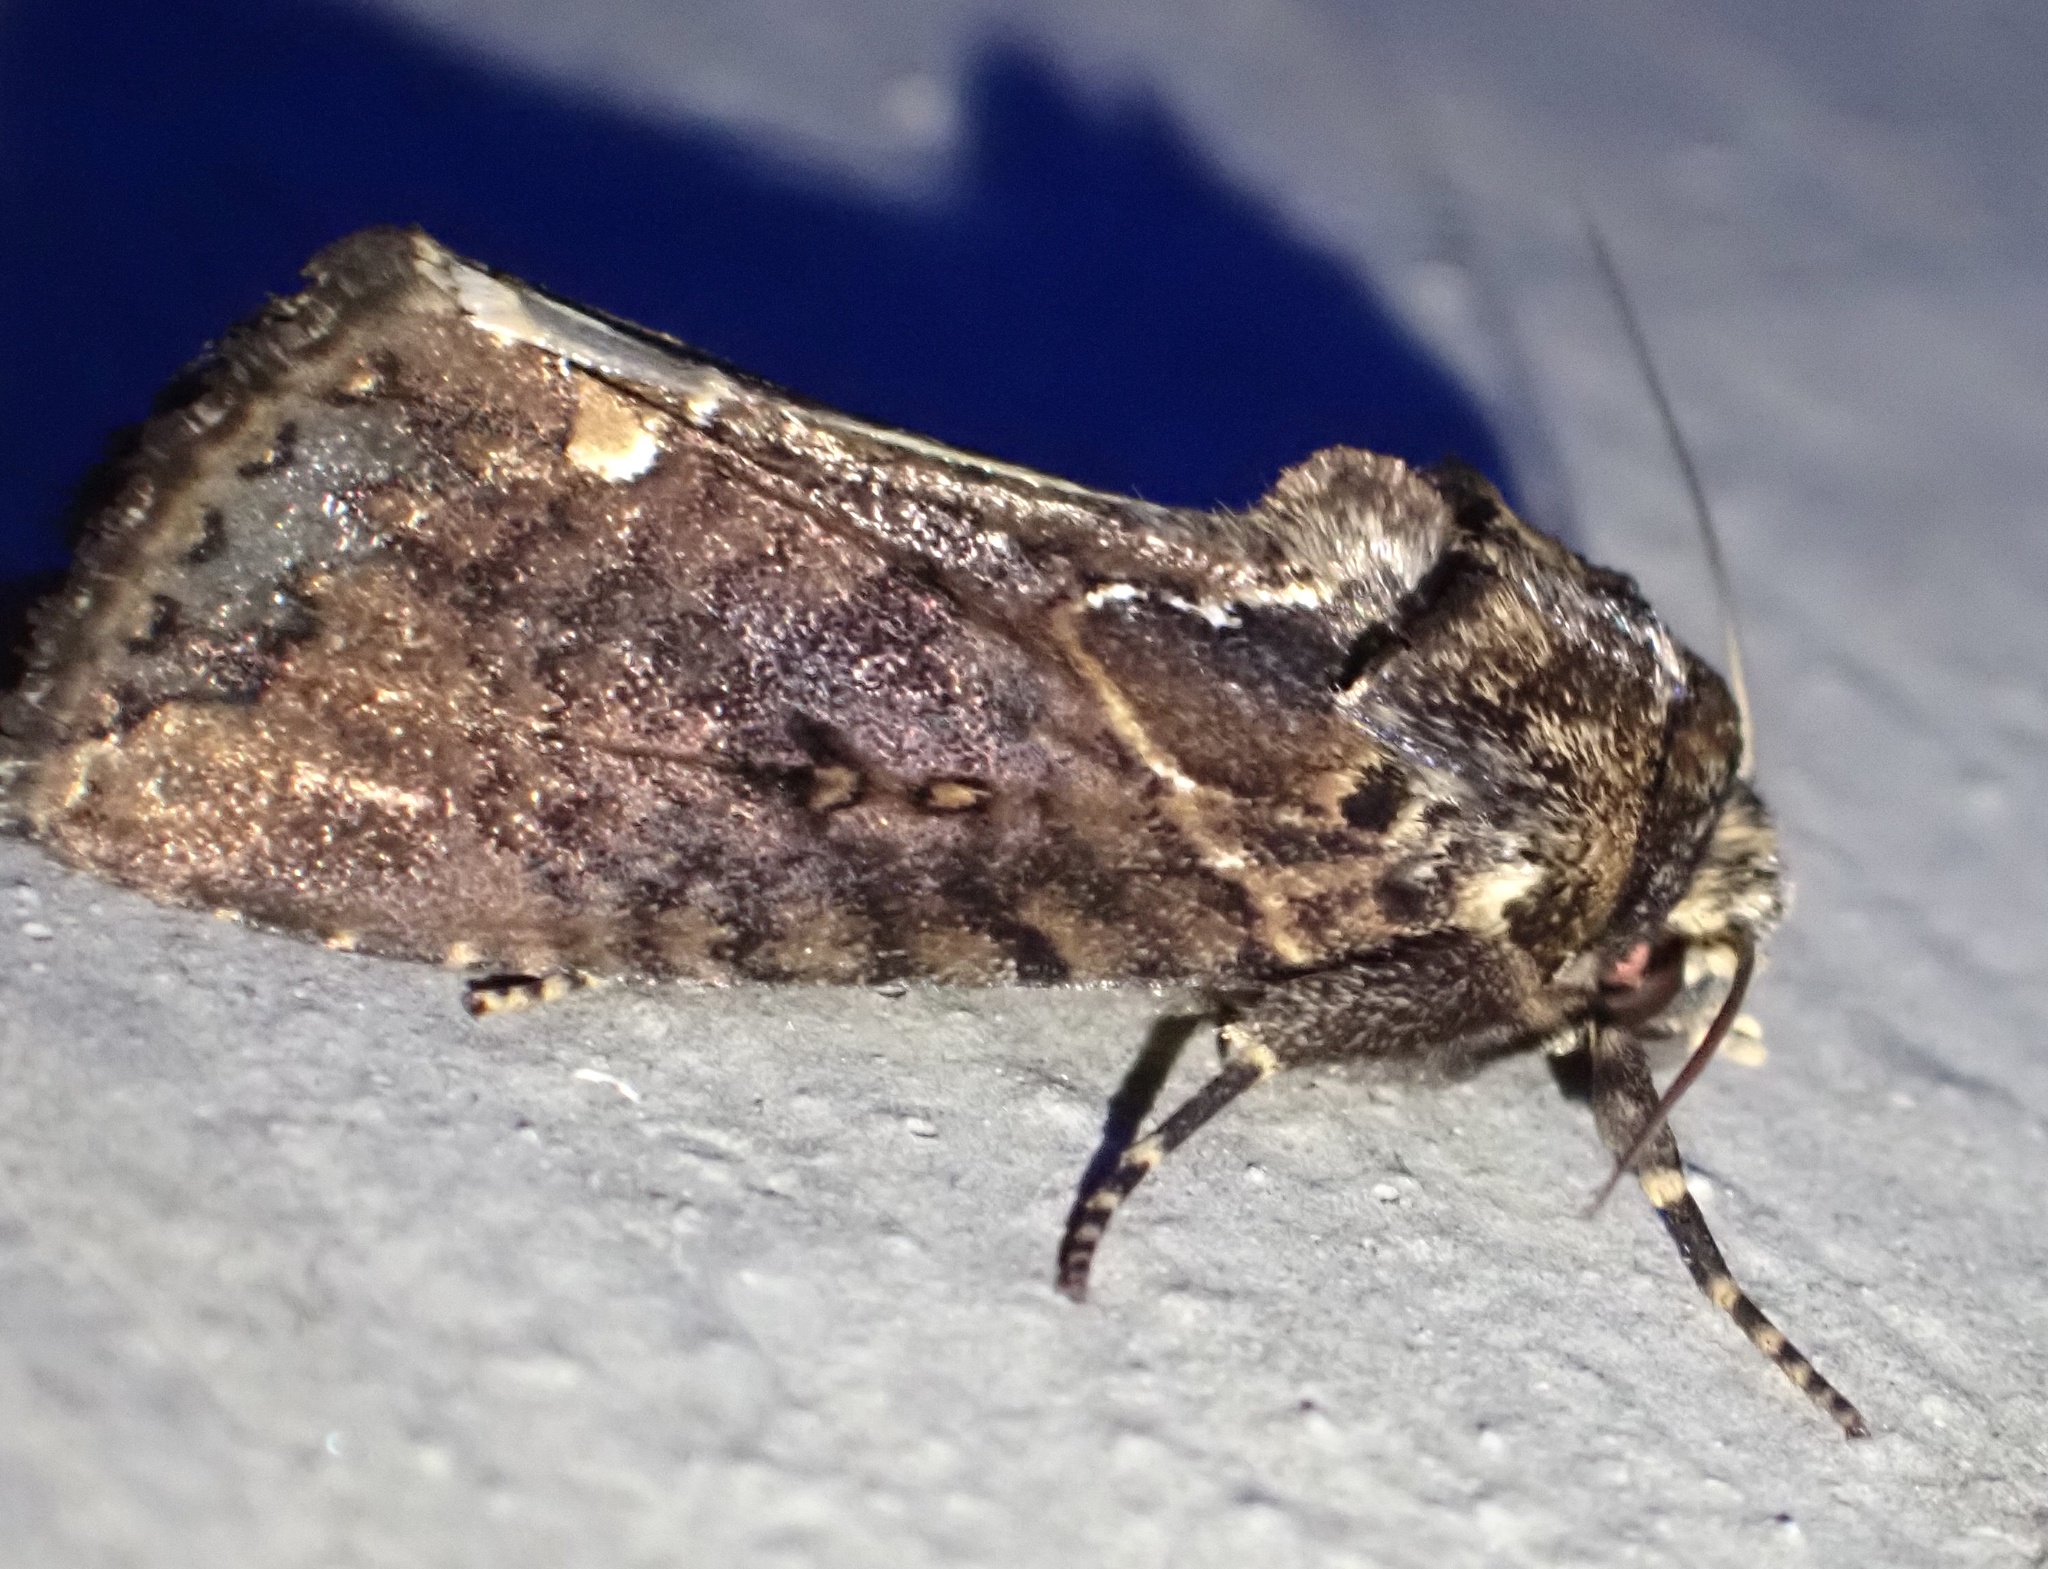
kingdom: Animalia
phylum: Arthropoda
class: Insecta
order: Lepidoptera
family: Drepanidae
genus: Habrona
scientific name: Habrona brunnea
